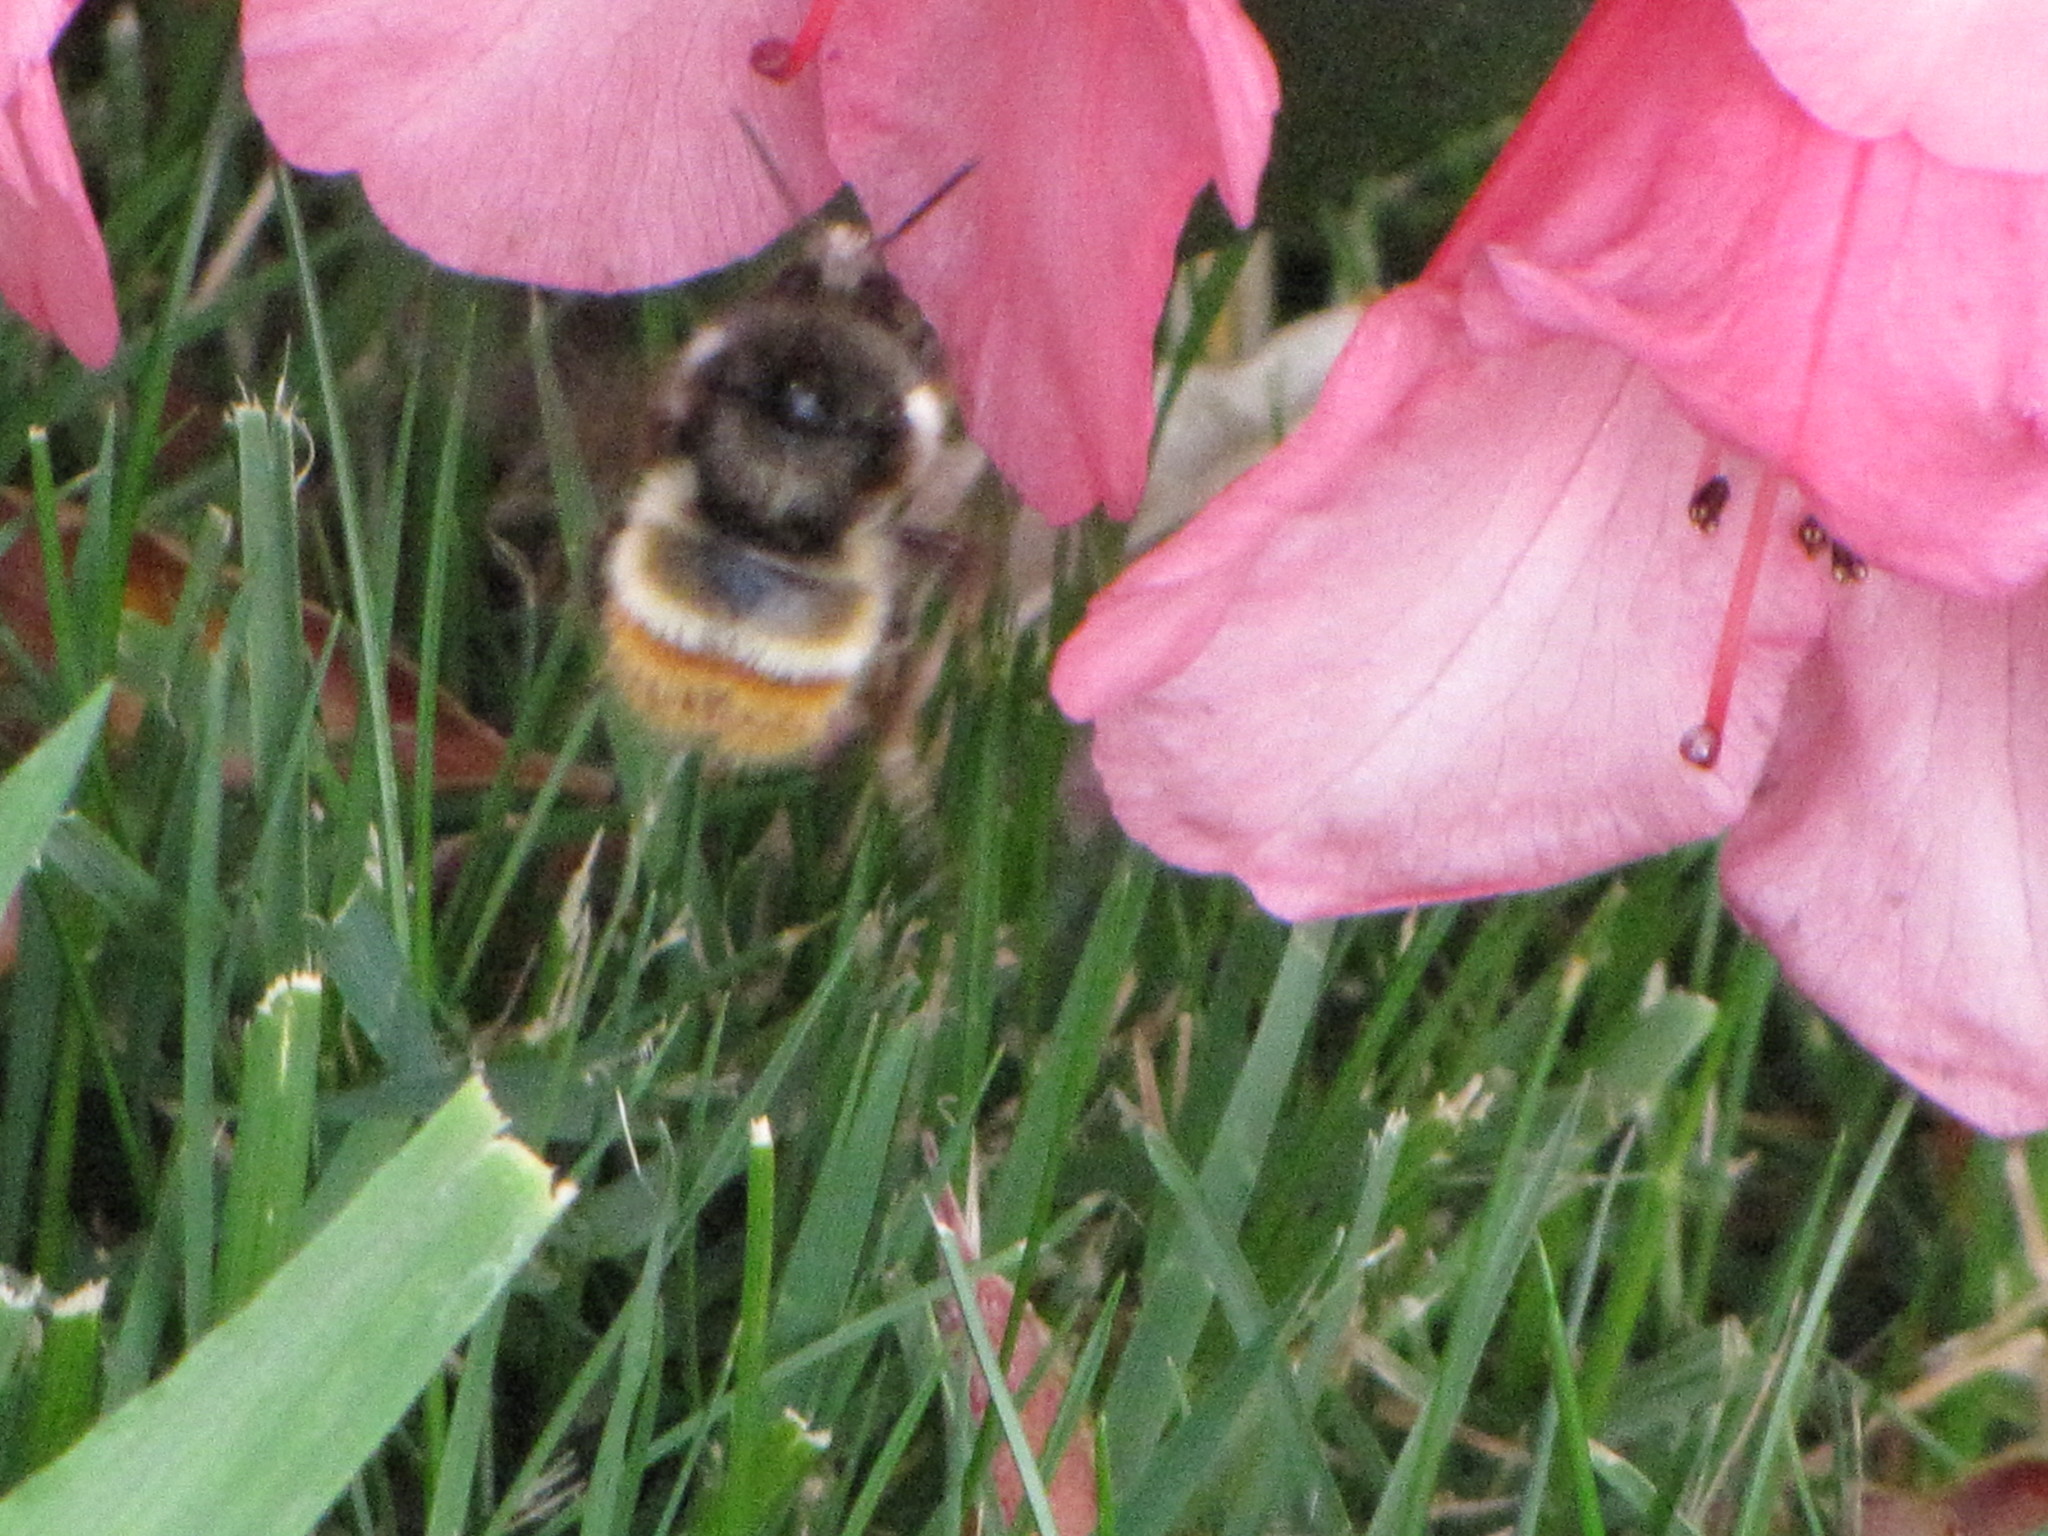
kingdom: Animalia
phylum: Arthropoda
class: Insecta
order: Hymenoptera
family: Apidae
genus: Bombus
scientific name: Bombus flavifrons
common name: Yellow head bumble bee
